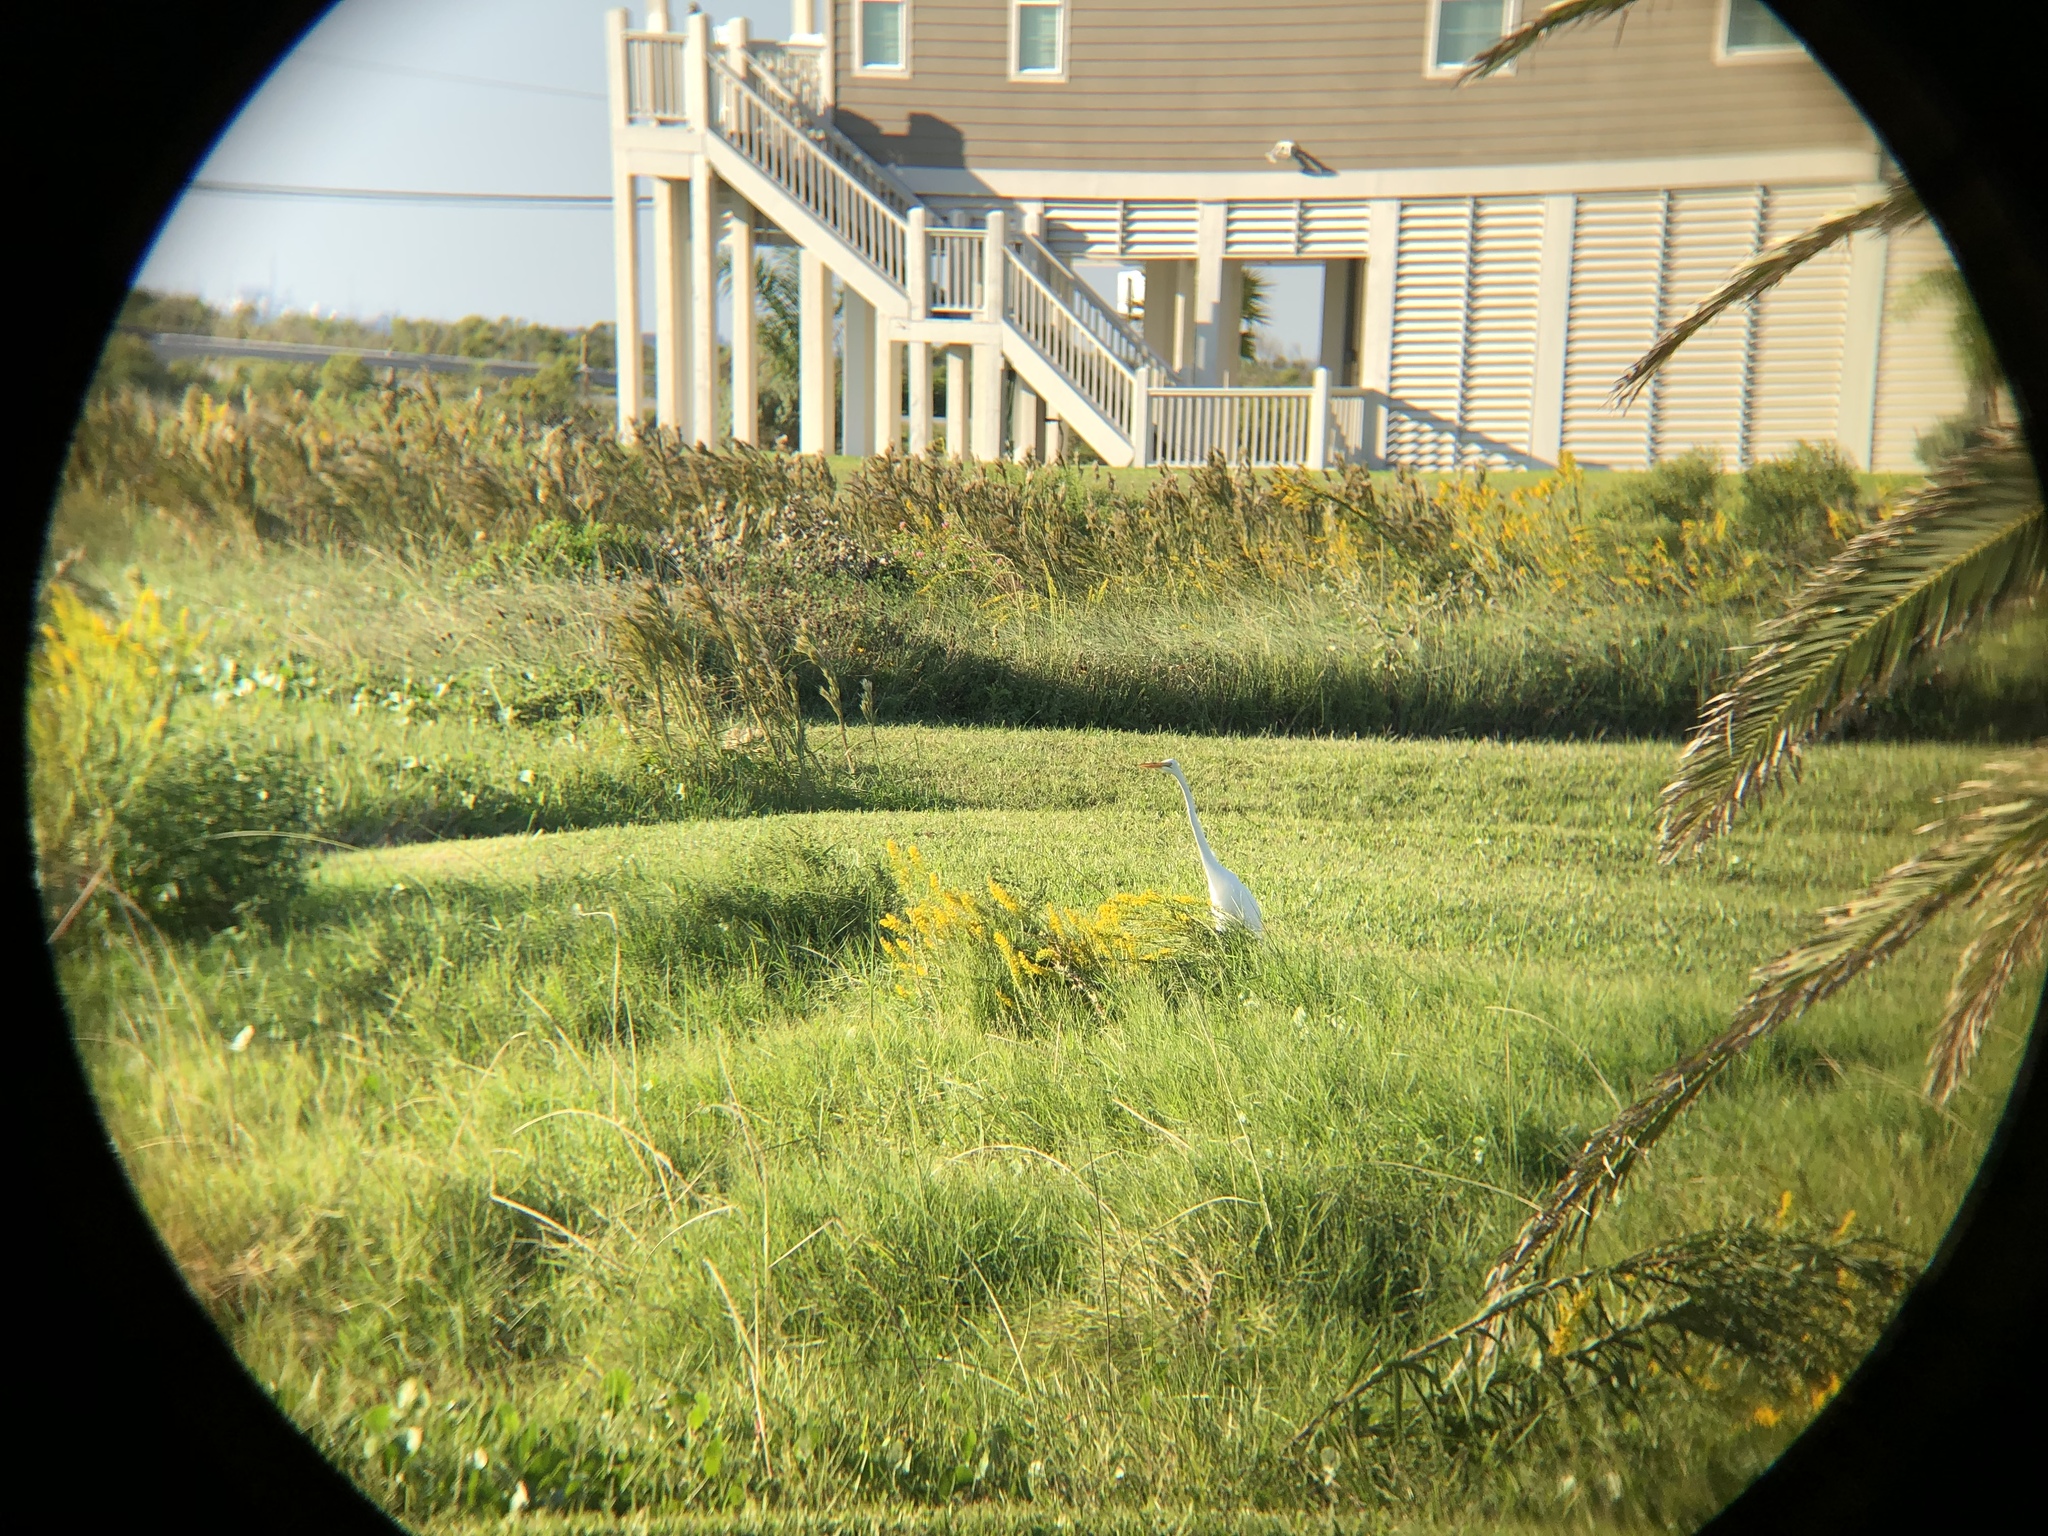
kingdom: Animalia
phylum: Chordata
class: Aves
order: Pelecaniformes
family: Ardeidae
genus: Ardea
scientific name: Ardea alba
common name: Great egret
